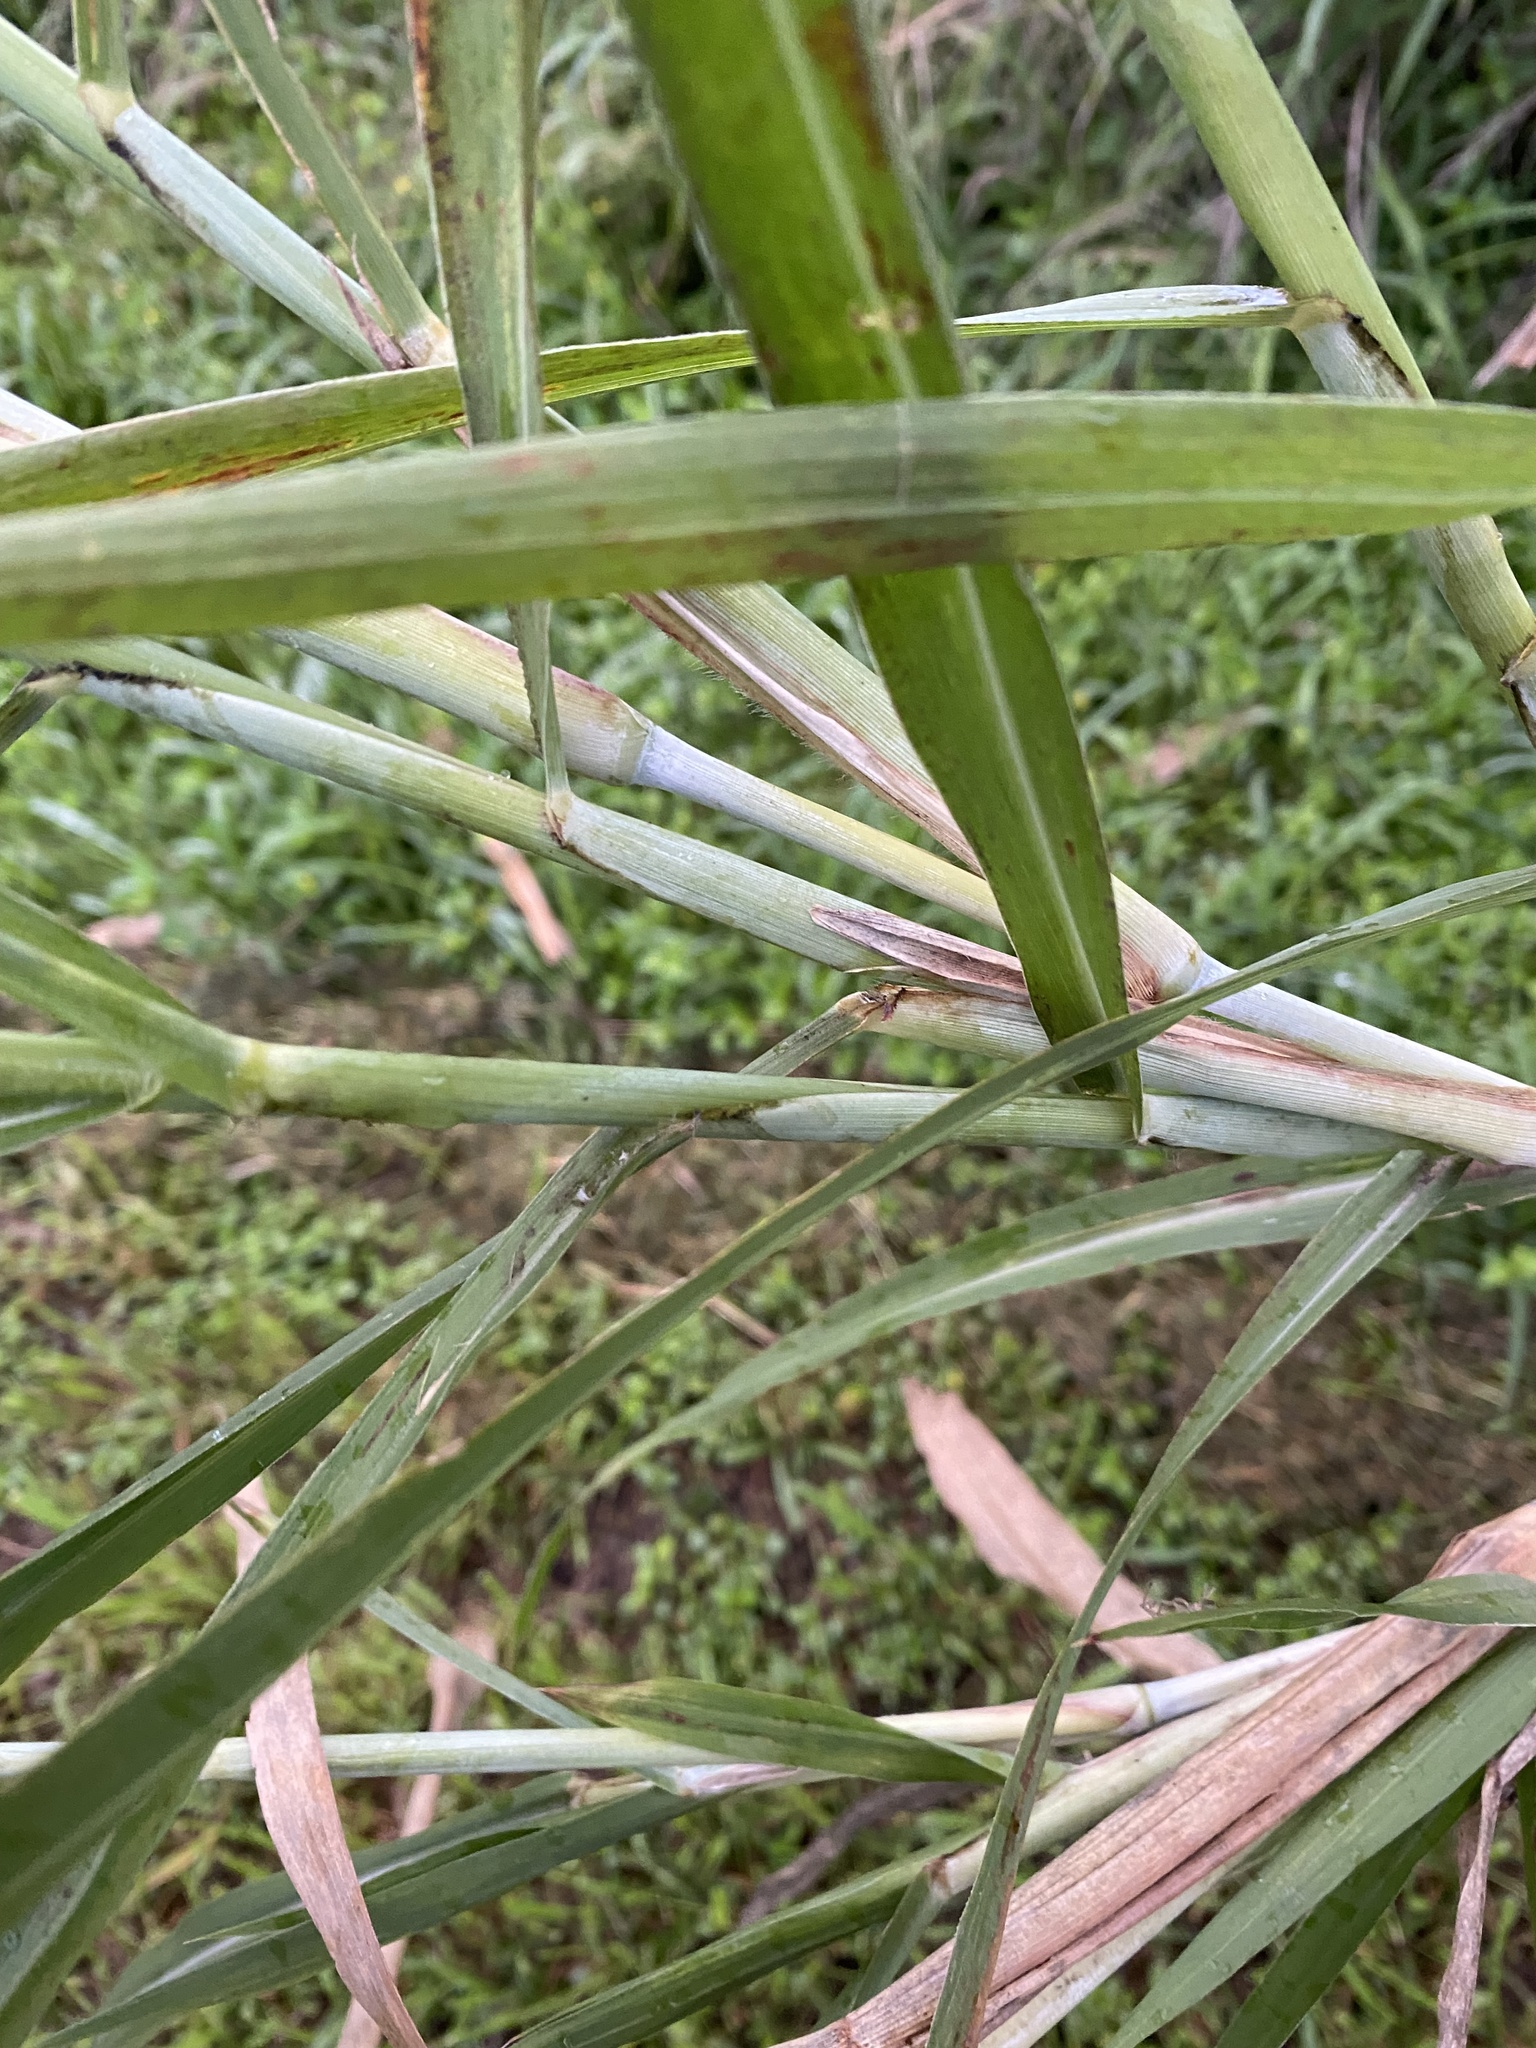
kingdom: Plantae
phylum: Tracheophyta
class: Liliopsida
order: Poales
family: Poaceae
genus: Cenchrus
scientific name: Cenchrus purpureus
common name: Elephant grass
